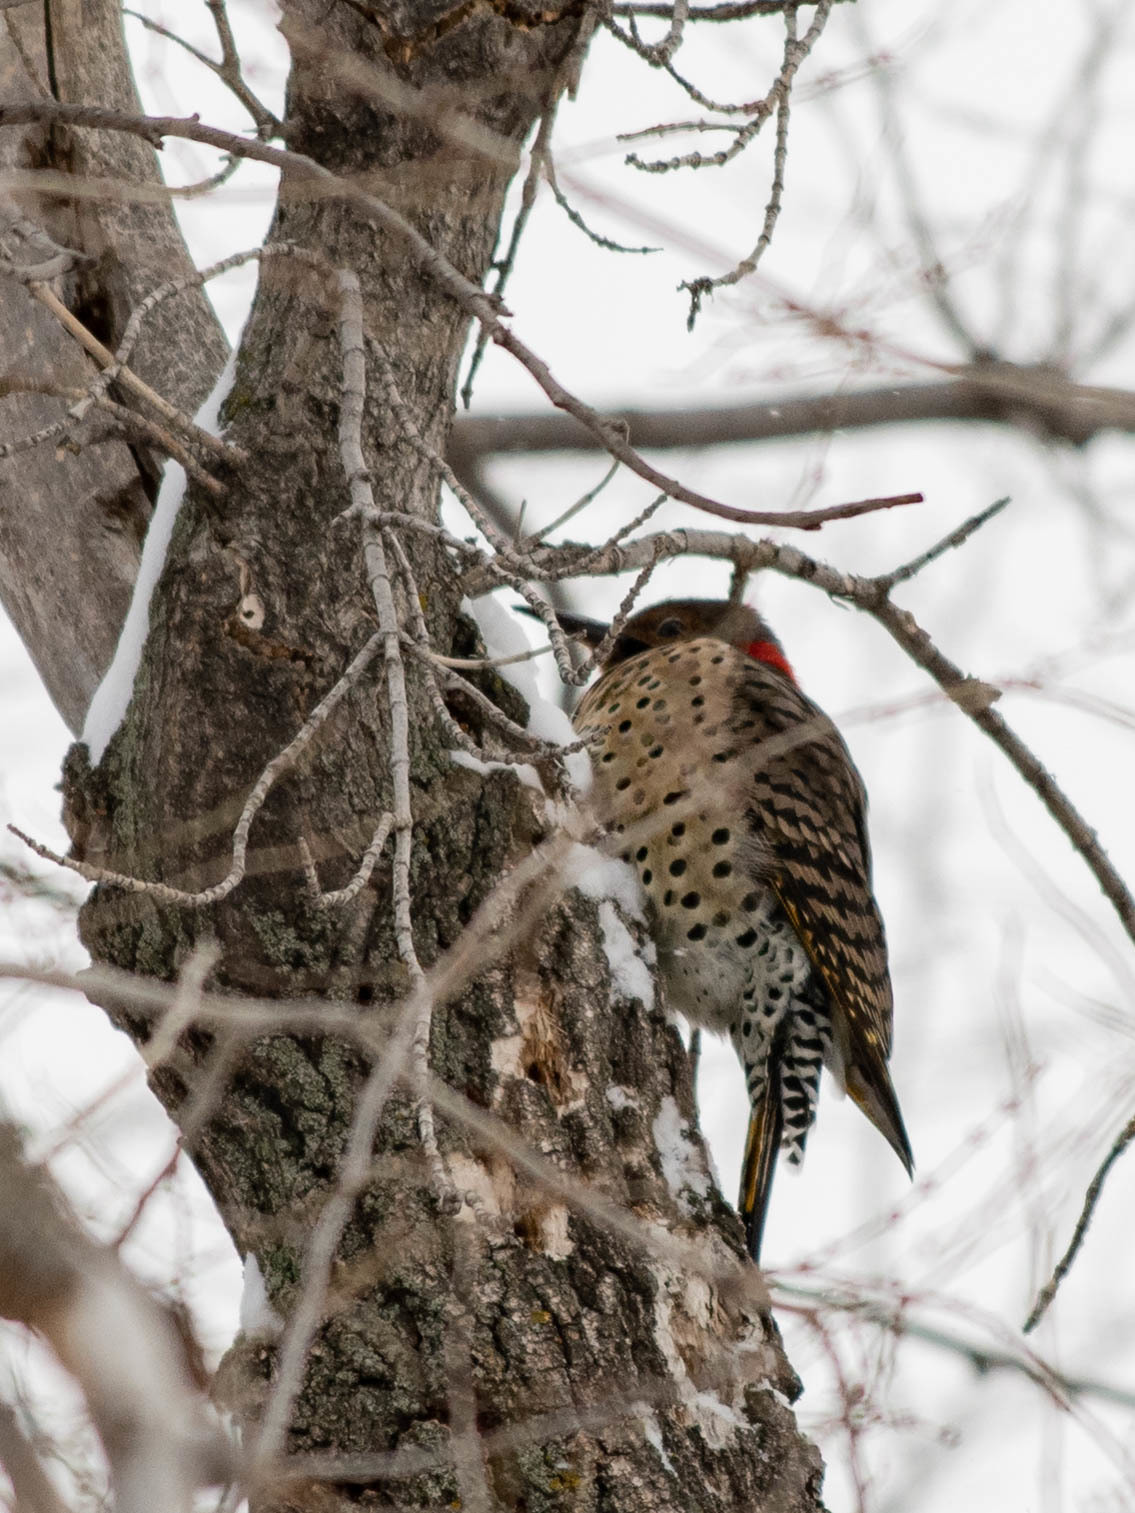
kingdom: Animalia
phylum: Chordata
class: Aves
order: Piciformes
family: Picidae
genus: Colaptes
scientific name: Colaptes auratus
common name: Northern flicker
